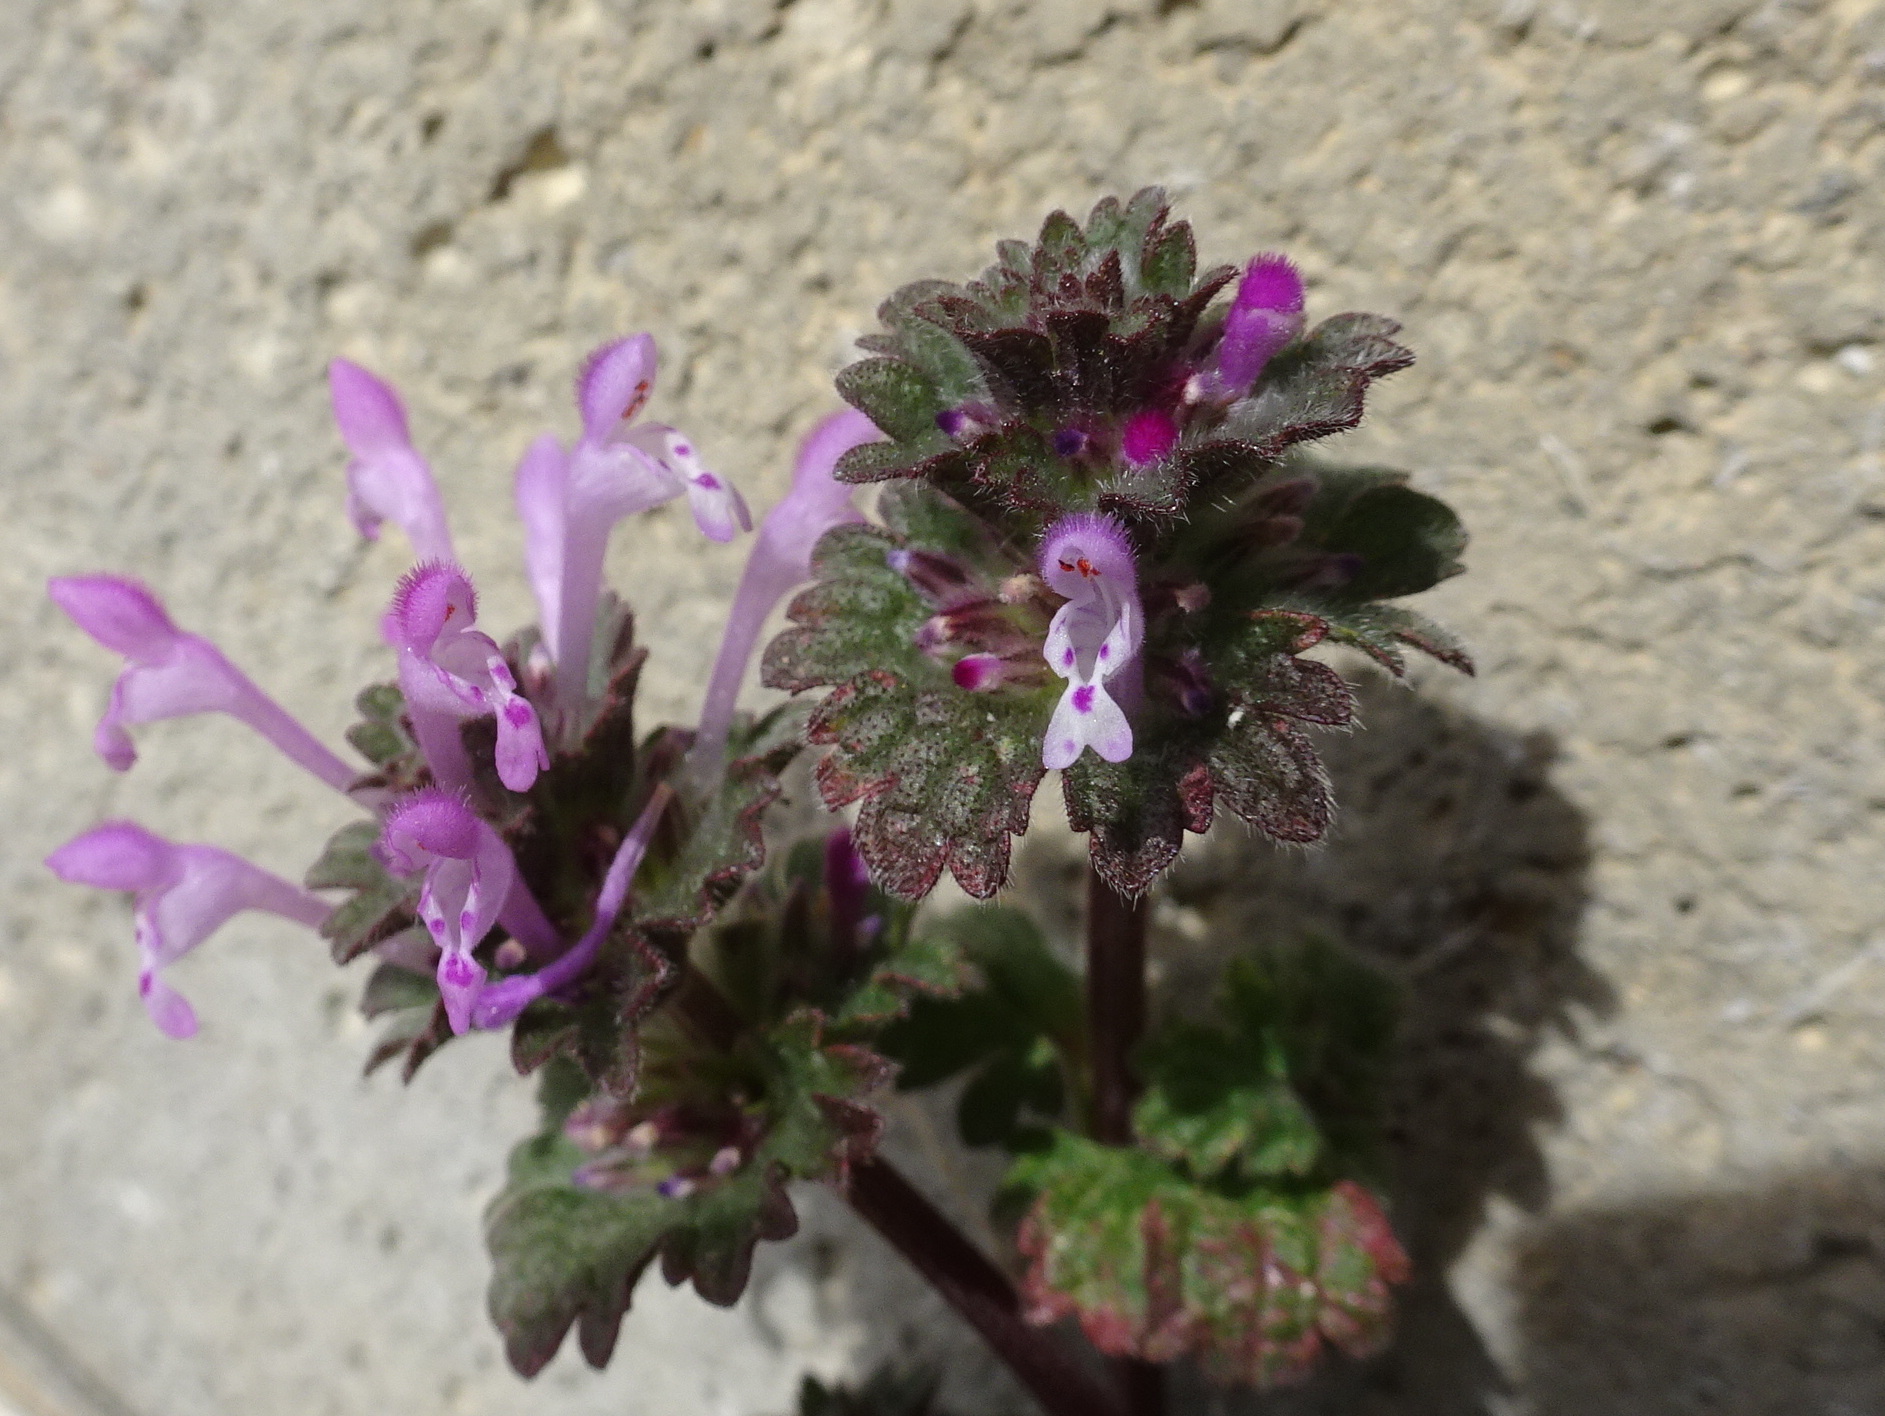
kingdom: Plantae
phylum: Tracheophyta
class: Magnoliopsida
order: Lamiales
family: Lamiaceae
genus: Lamium
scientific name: Lamium amplexicaule
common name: Henbit dead-nettle
